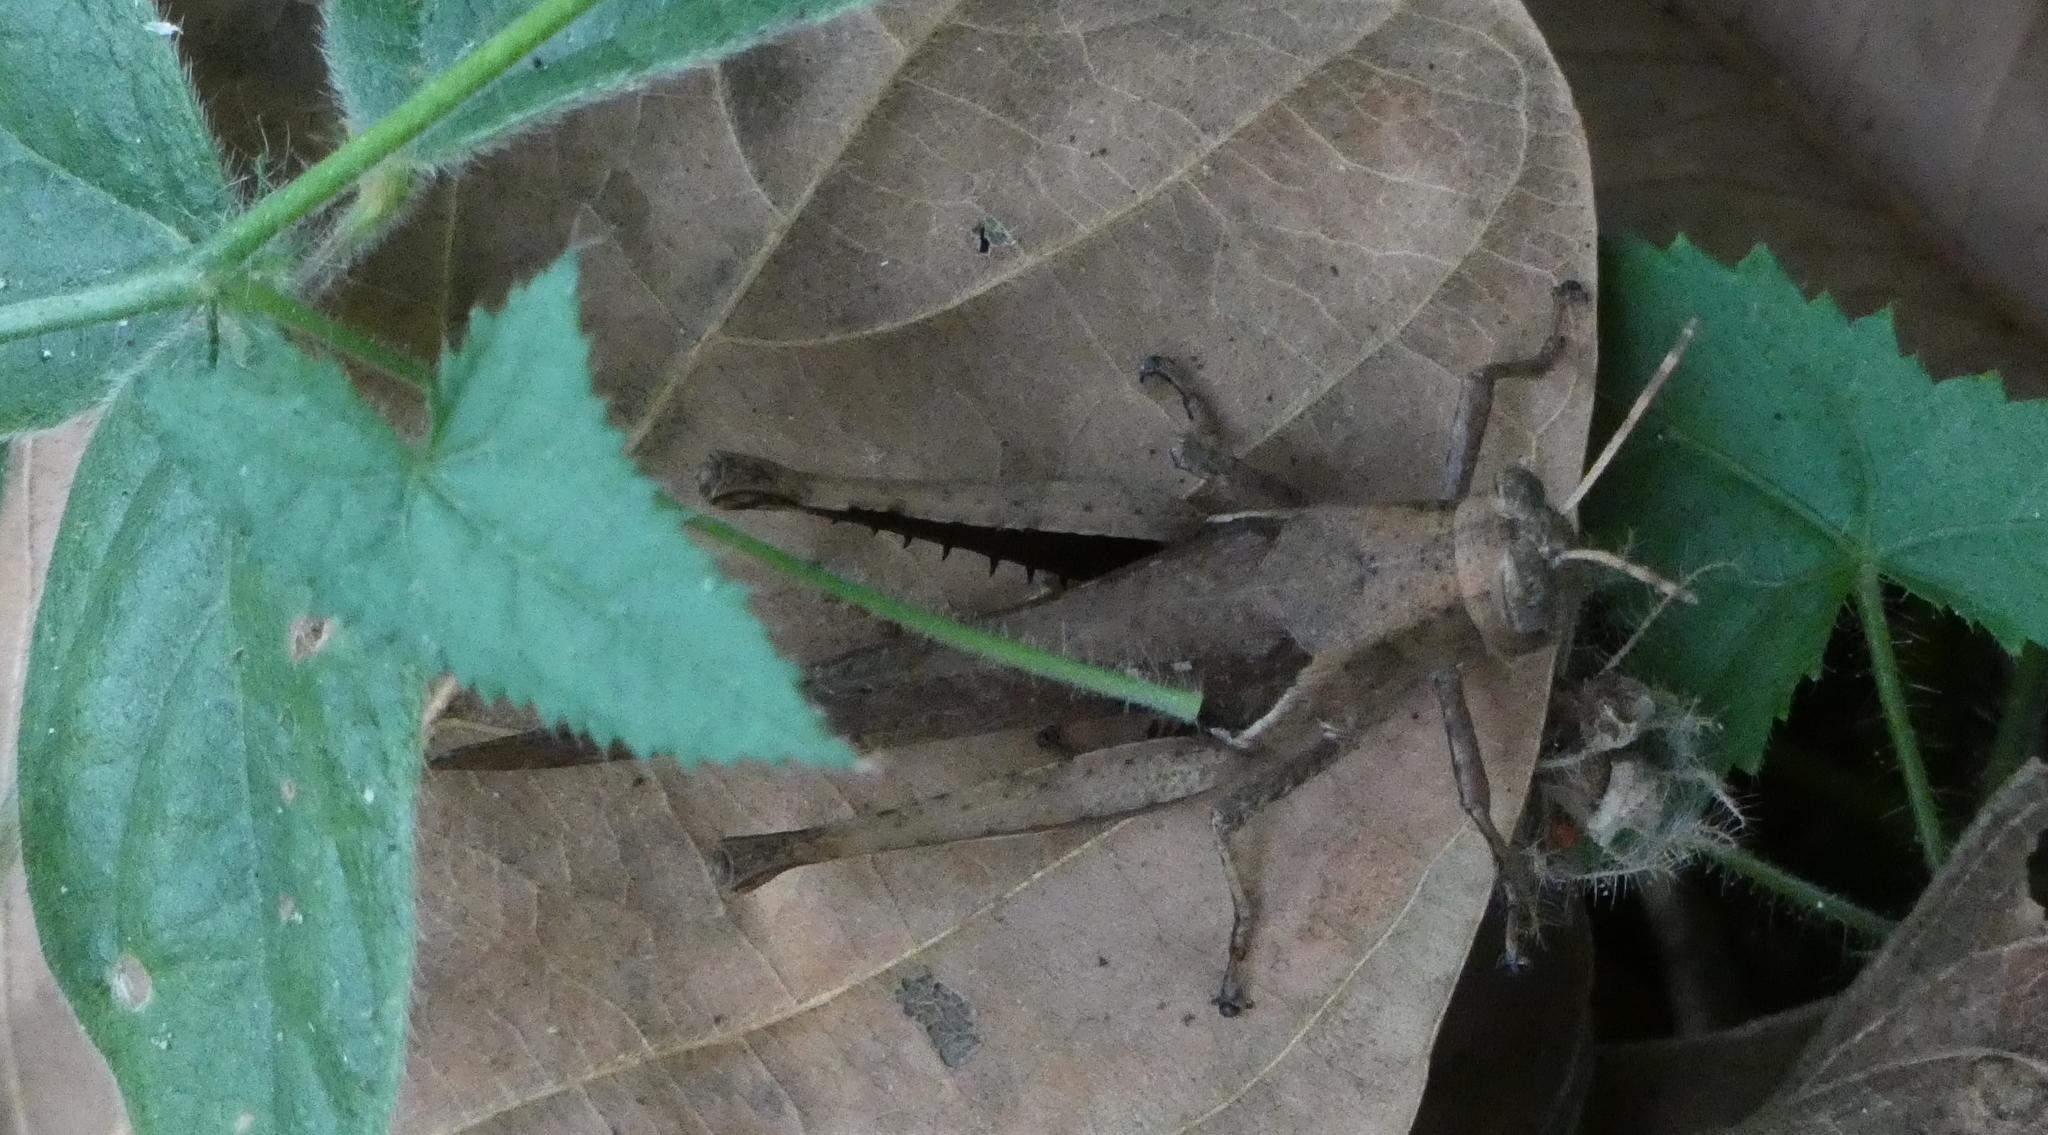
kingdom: Animalia
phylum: Arthropoda
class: Insecta
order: Orthoptera
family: Acrididae
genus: Abracris
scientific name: Abracris flavolineata
